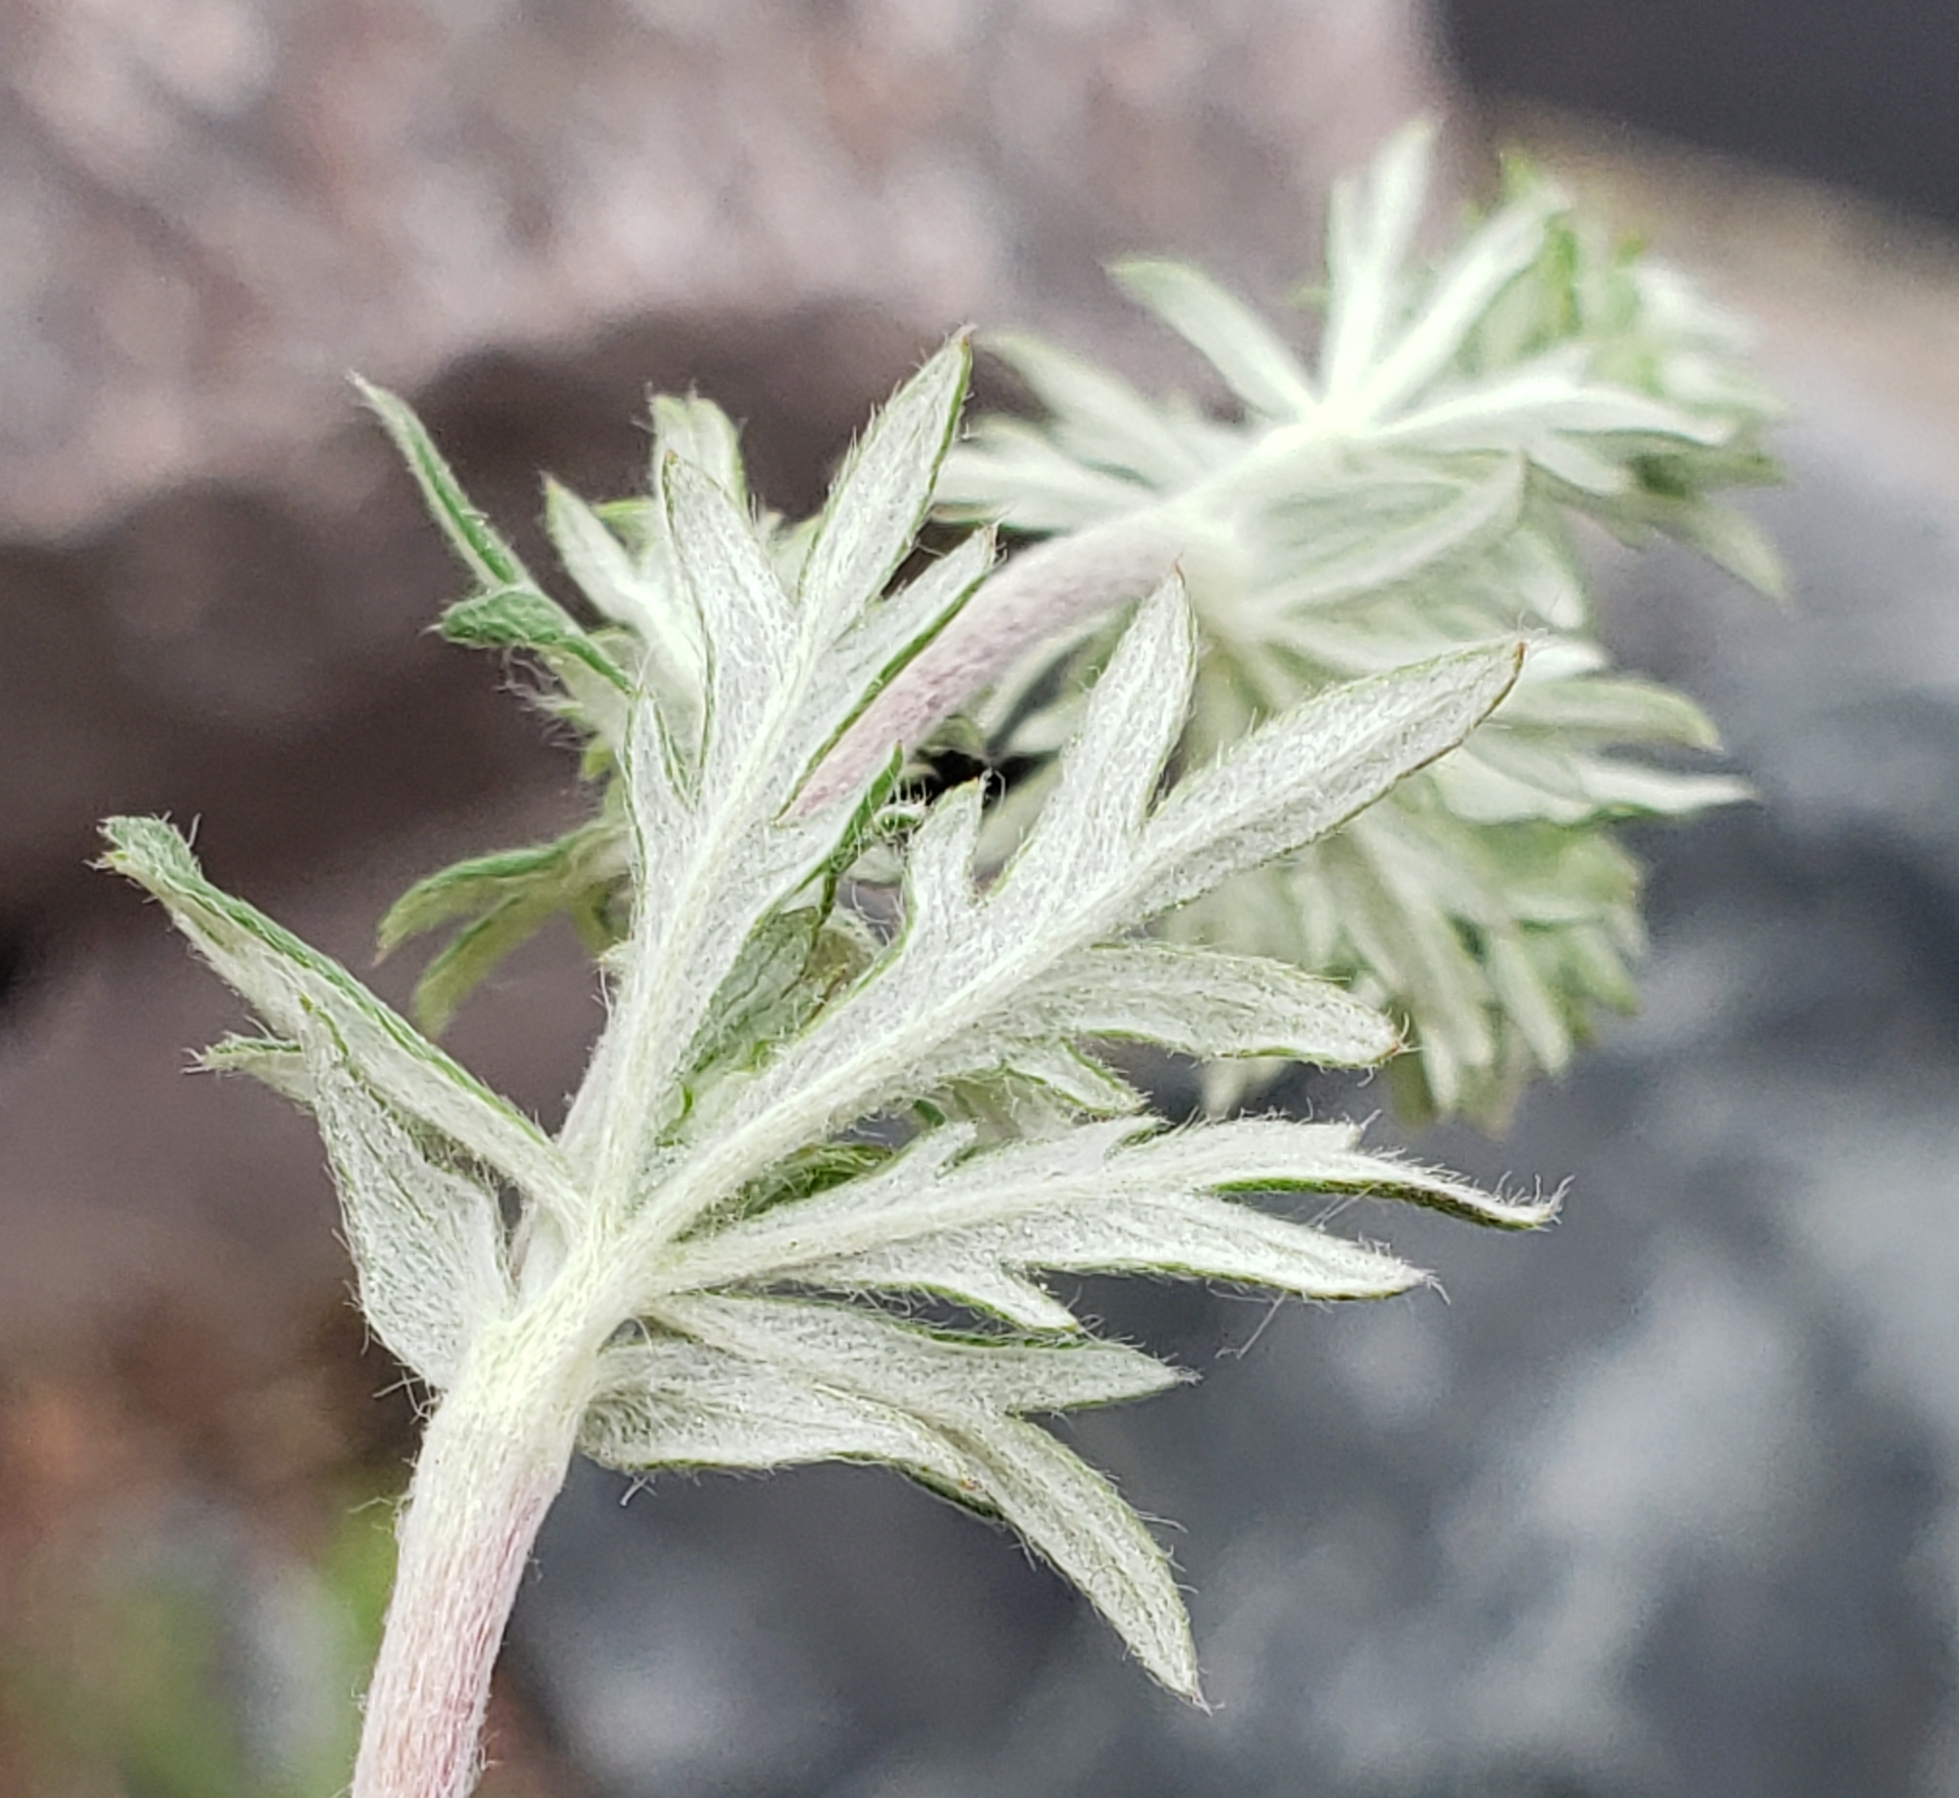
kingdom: Plantae
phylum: Tracheophyta
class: Magnoliopsida
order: Rosales
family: Rosaceae
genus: Potentilla
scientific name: Potentilla argentea
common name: Hoary cinquefoil
